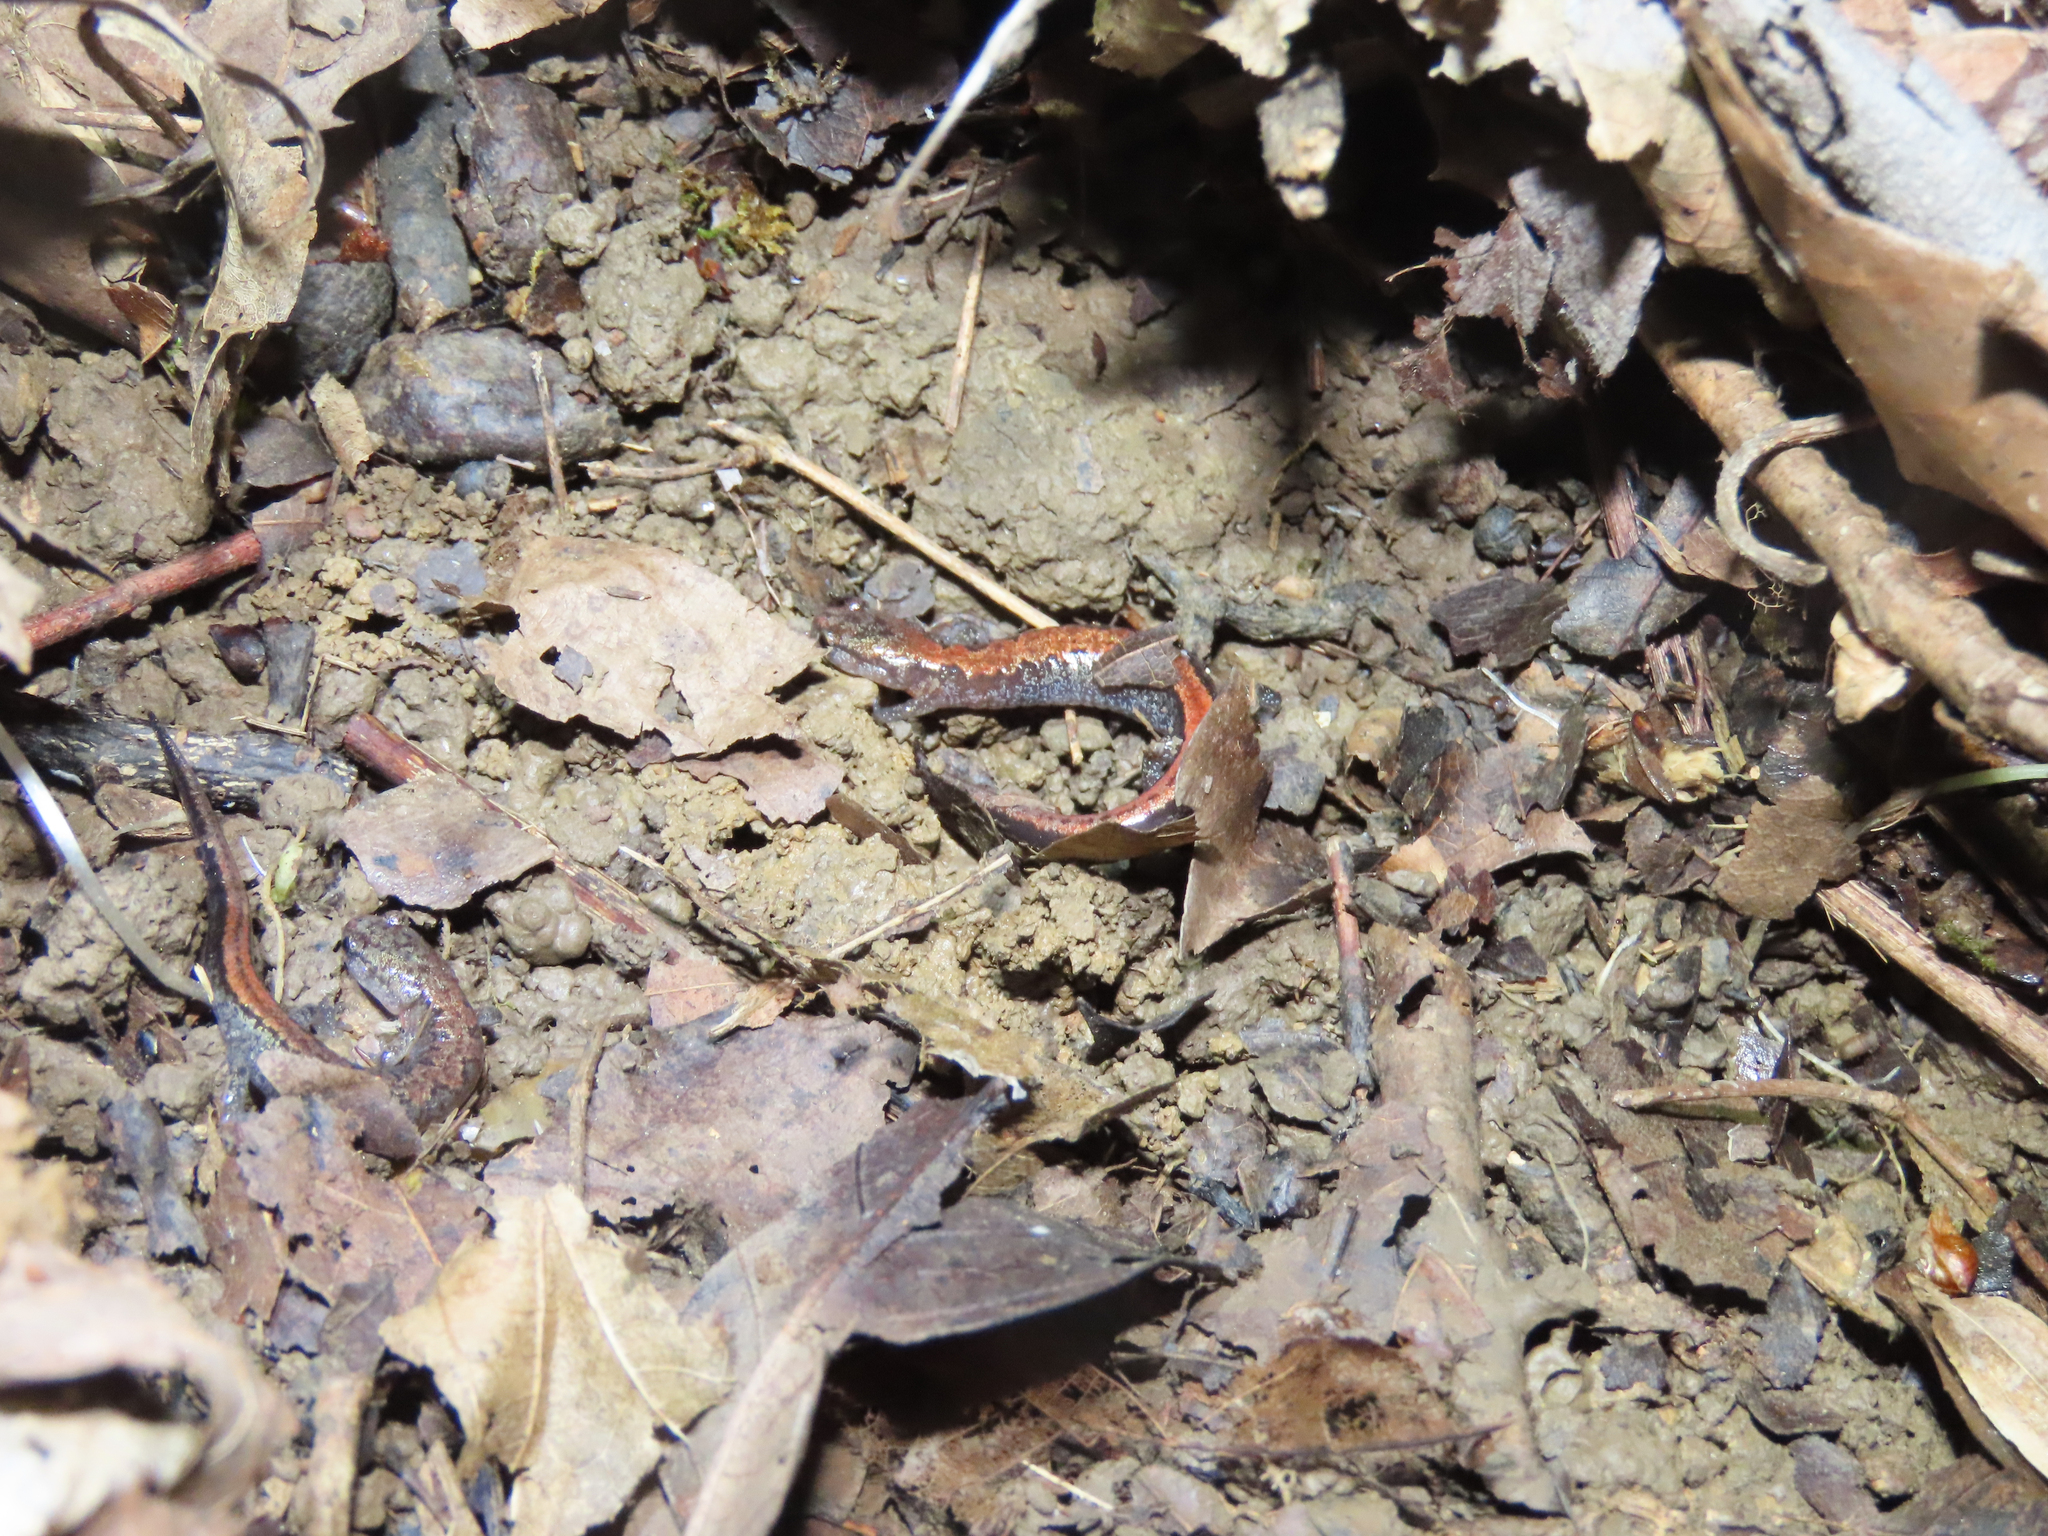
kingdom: Animalia
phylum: Chordata
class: Amphibia
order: Caudata
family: Plethodontidae
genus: Plethodon
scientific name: Plethodon dorsalis
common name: Northern zigzag salamander
